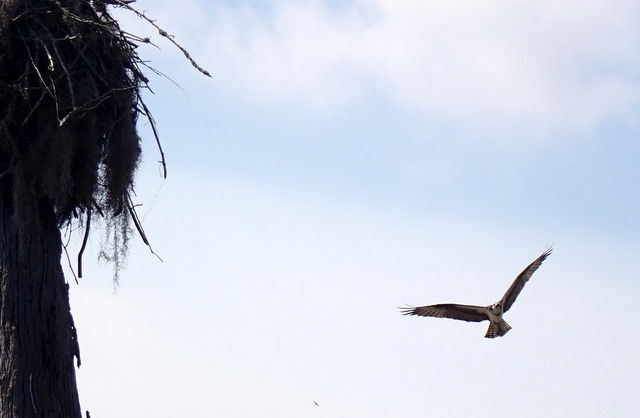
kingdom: Animalia
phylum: Chordata
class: Aves
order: Accipitriformes
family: Pandionidae
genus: Pandion
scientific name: Pandion haliaetus
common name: Osprey
